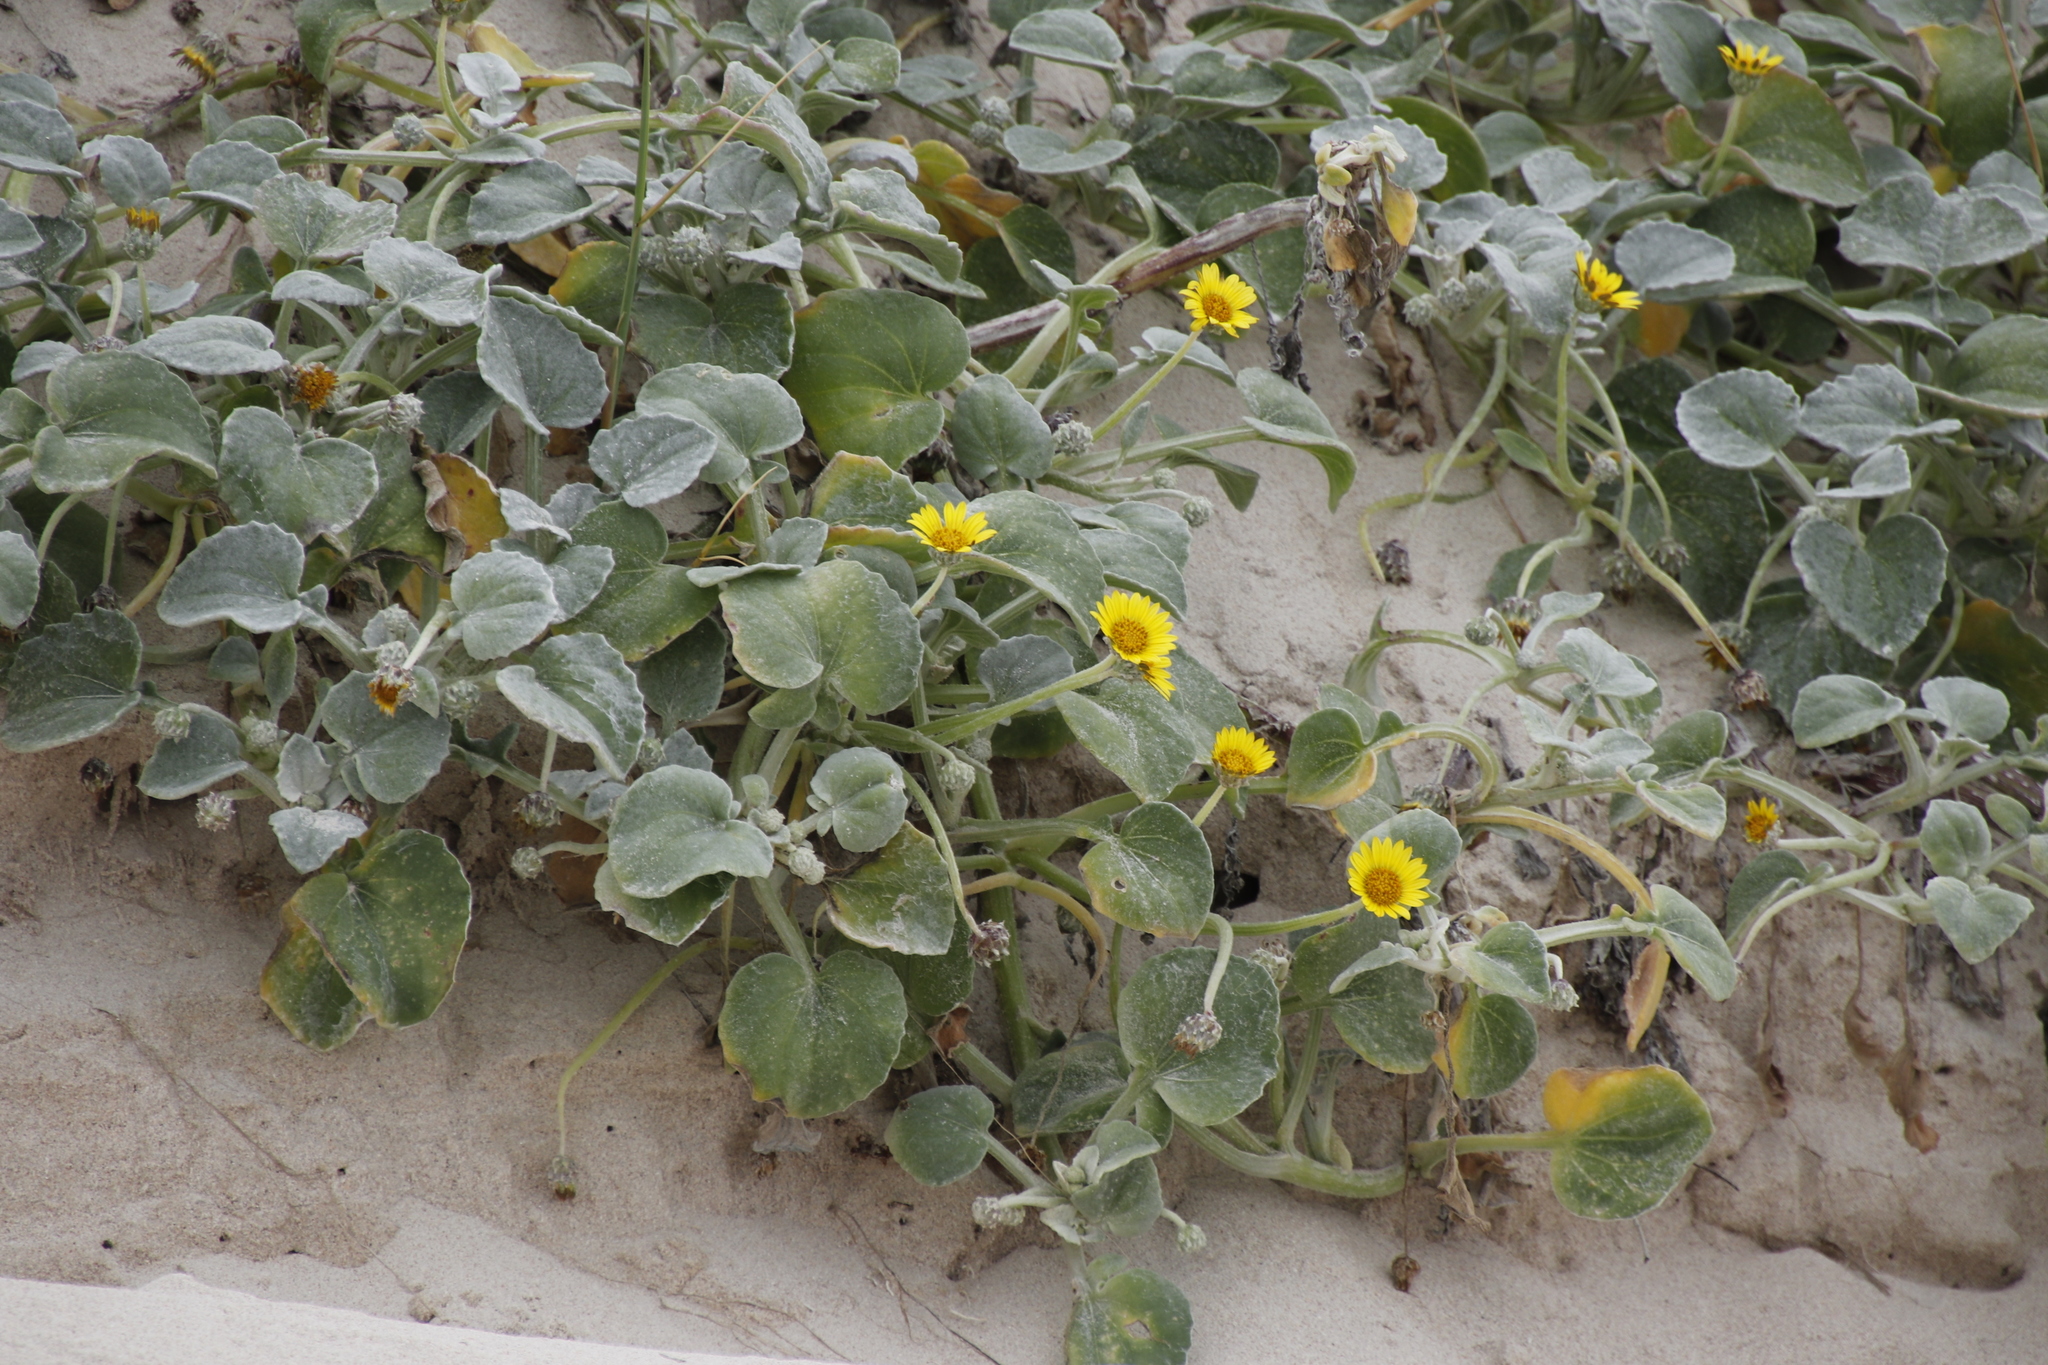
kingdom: Plantae
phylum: Tracheophyta
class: Magnoliopsida
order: Asterales
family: Asteraceae
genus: Arctotheca
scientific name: Arctotheca populifolia
